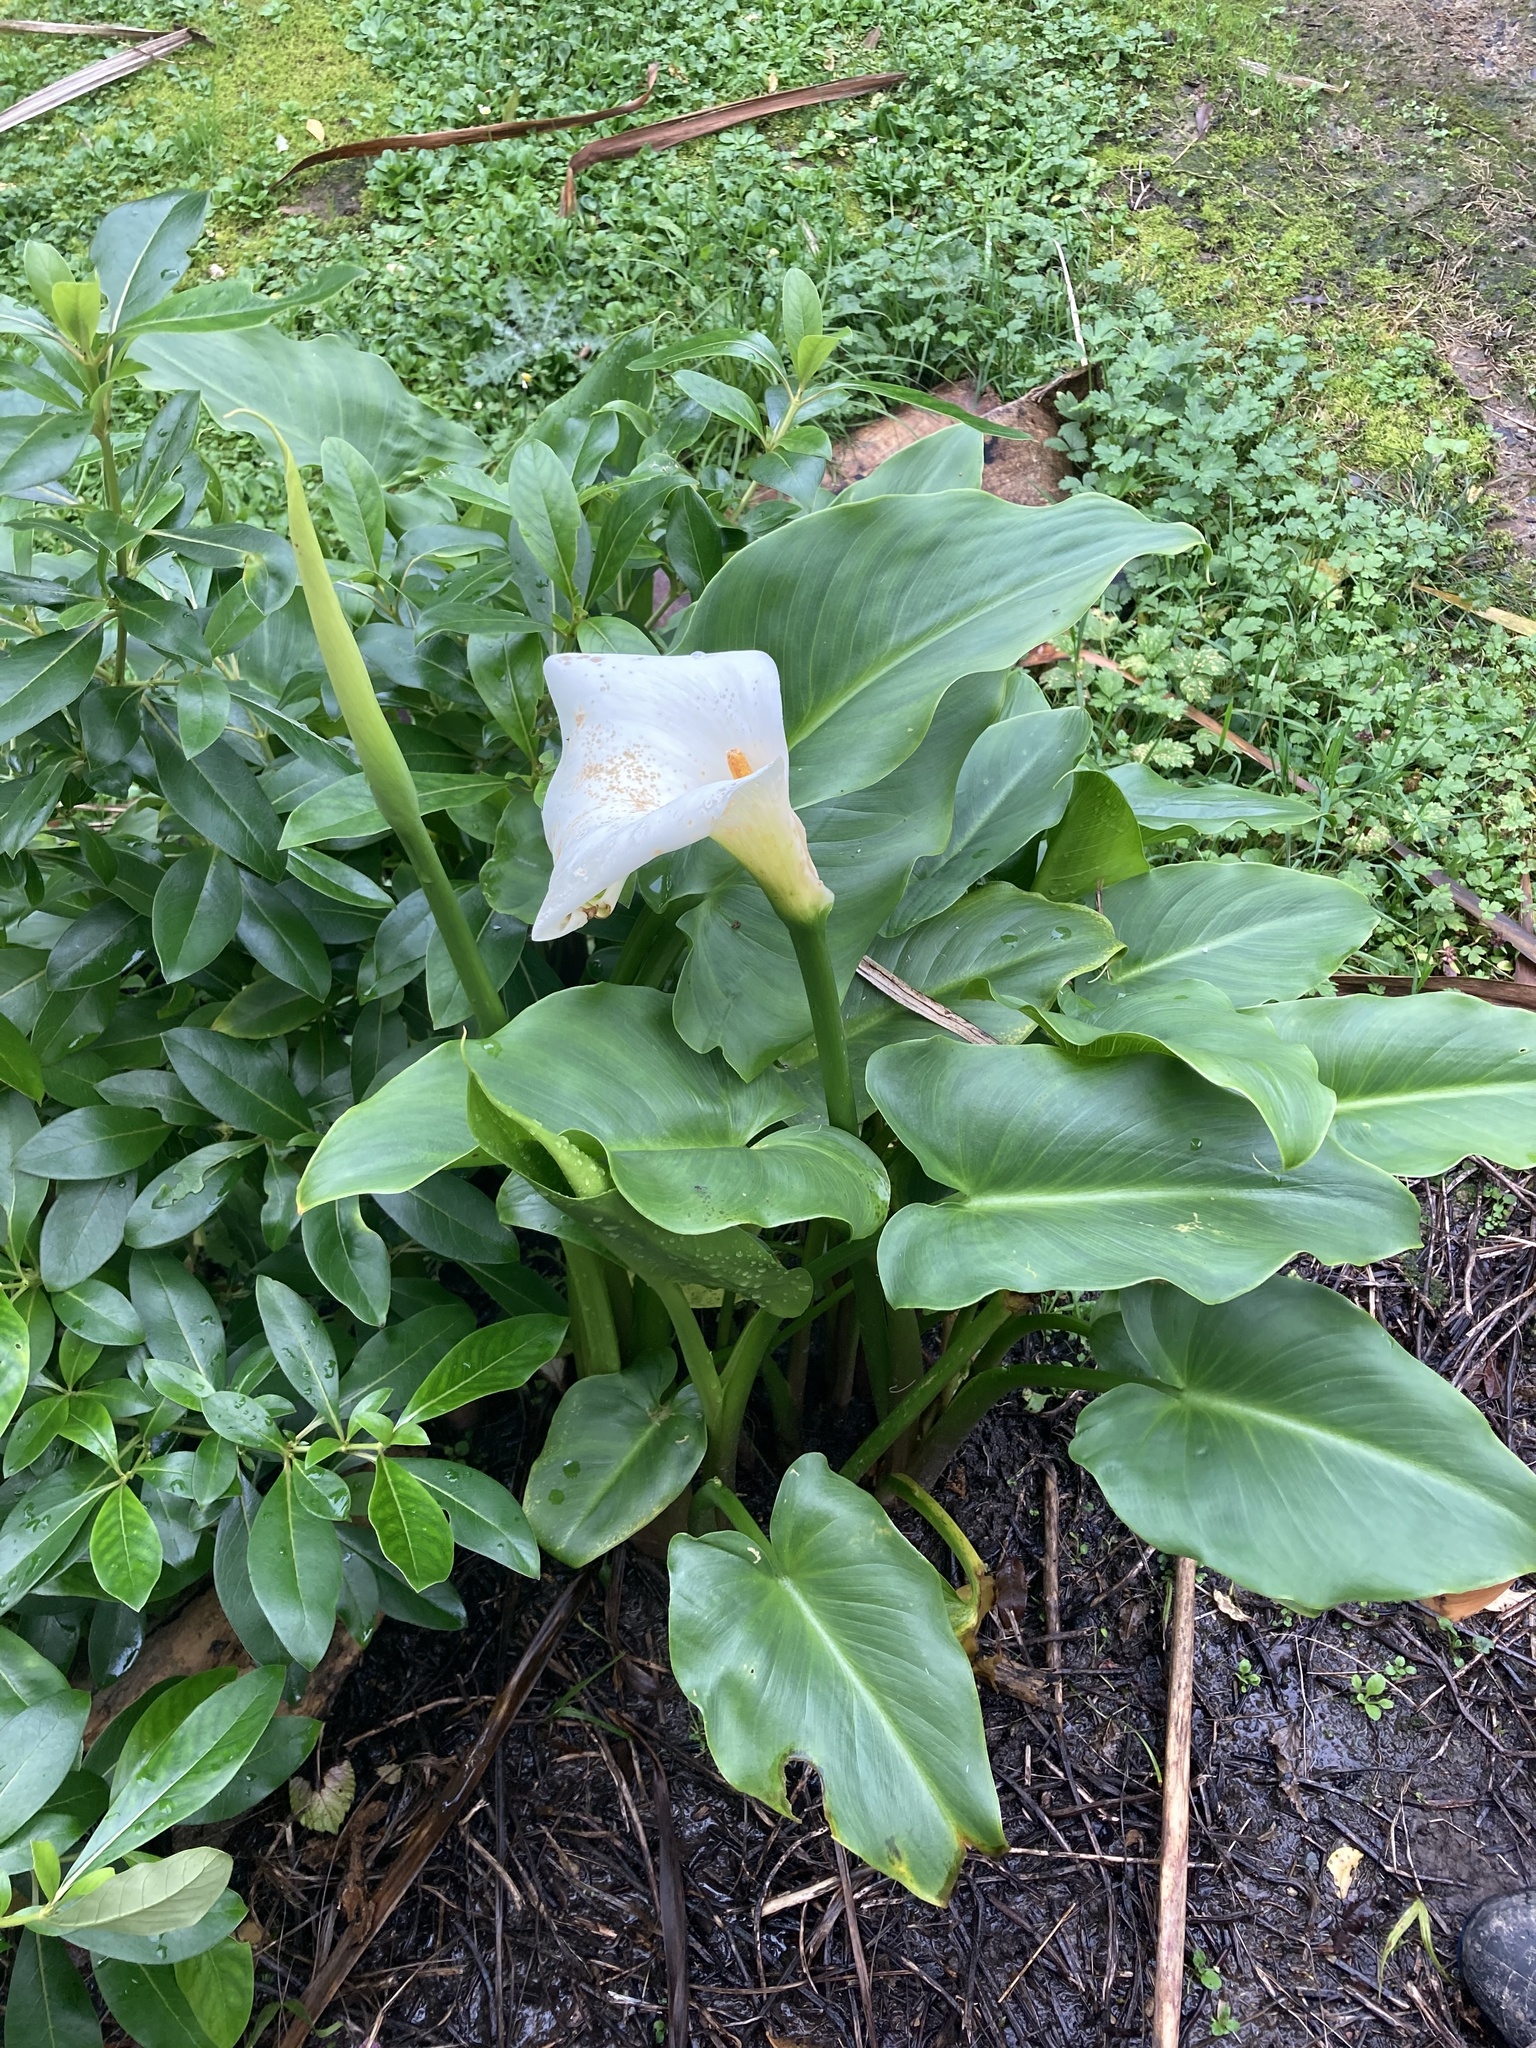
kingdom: Plantae
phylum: Tracheophyta
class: Liliopsida
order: Alismatales
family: Araceae
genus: Zantedeschia
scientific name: Zantedeschia aethiopica
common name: Altar-lily
